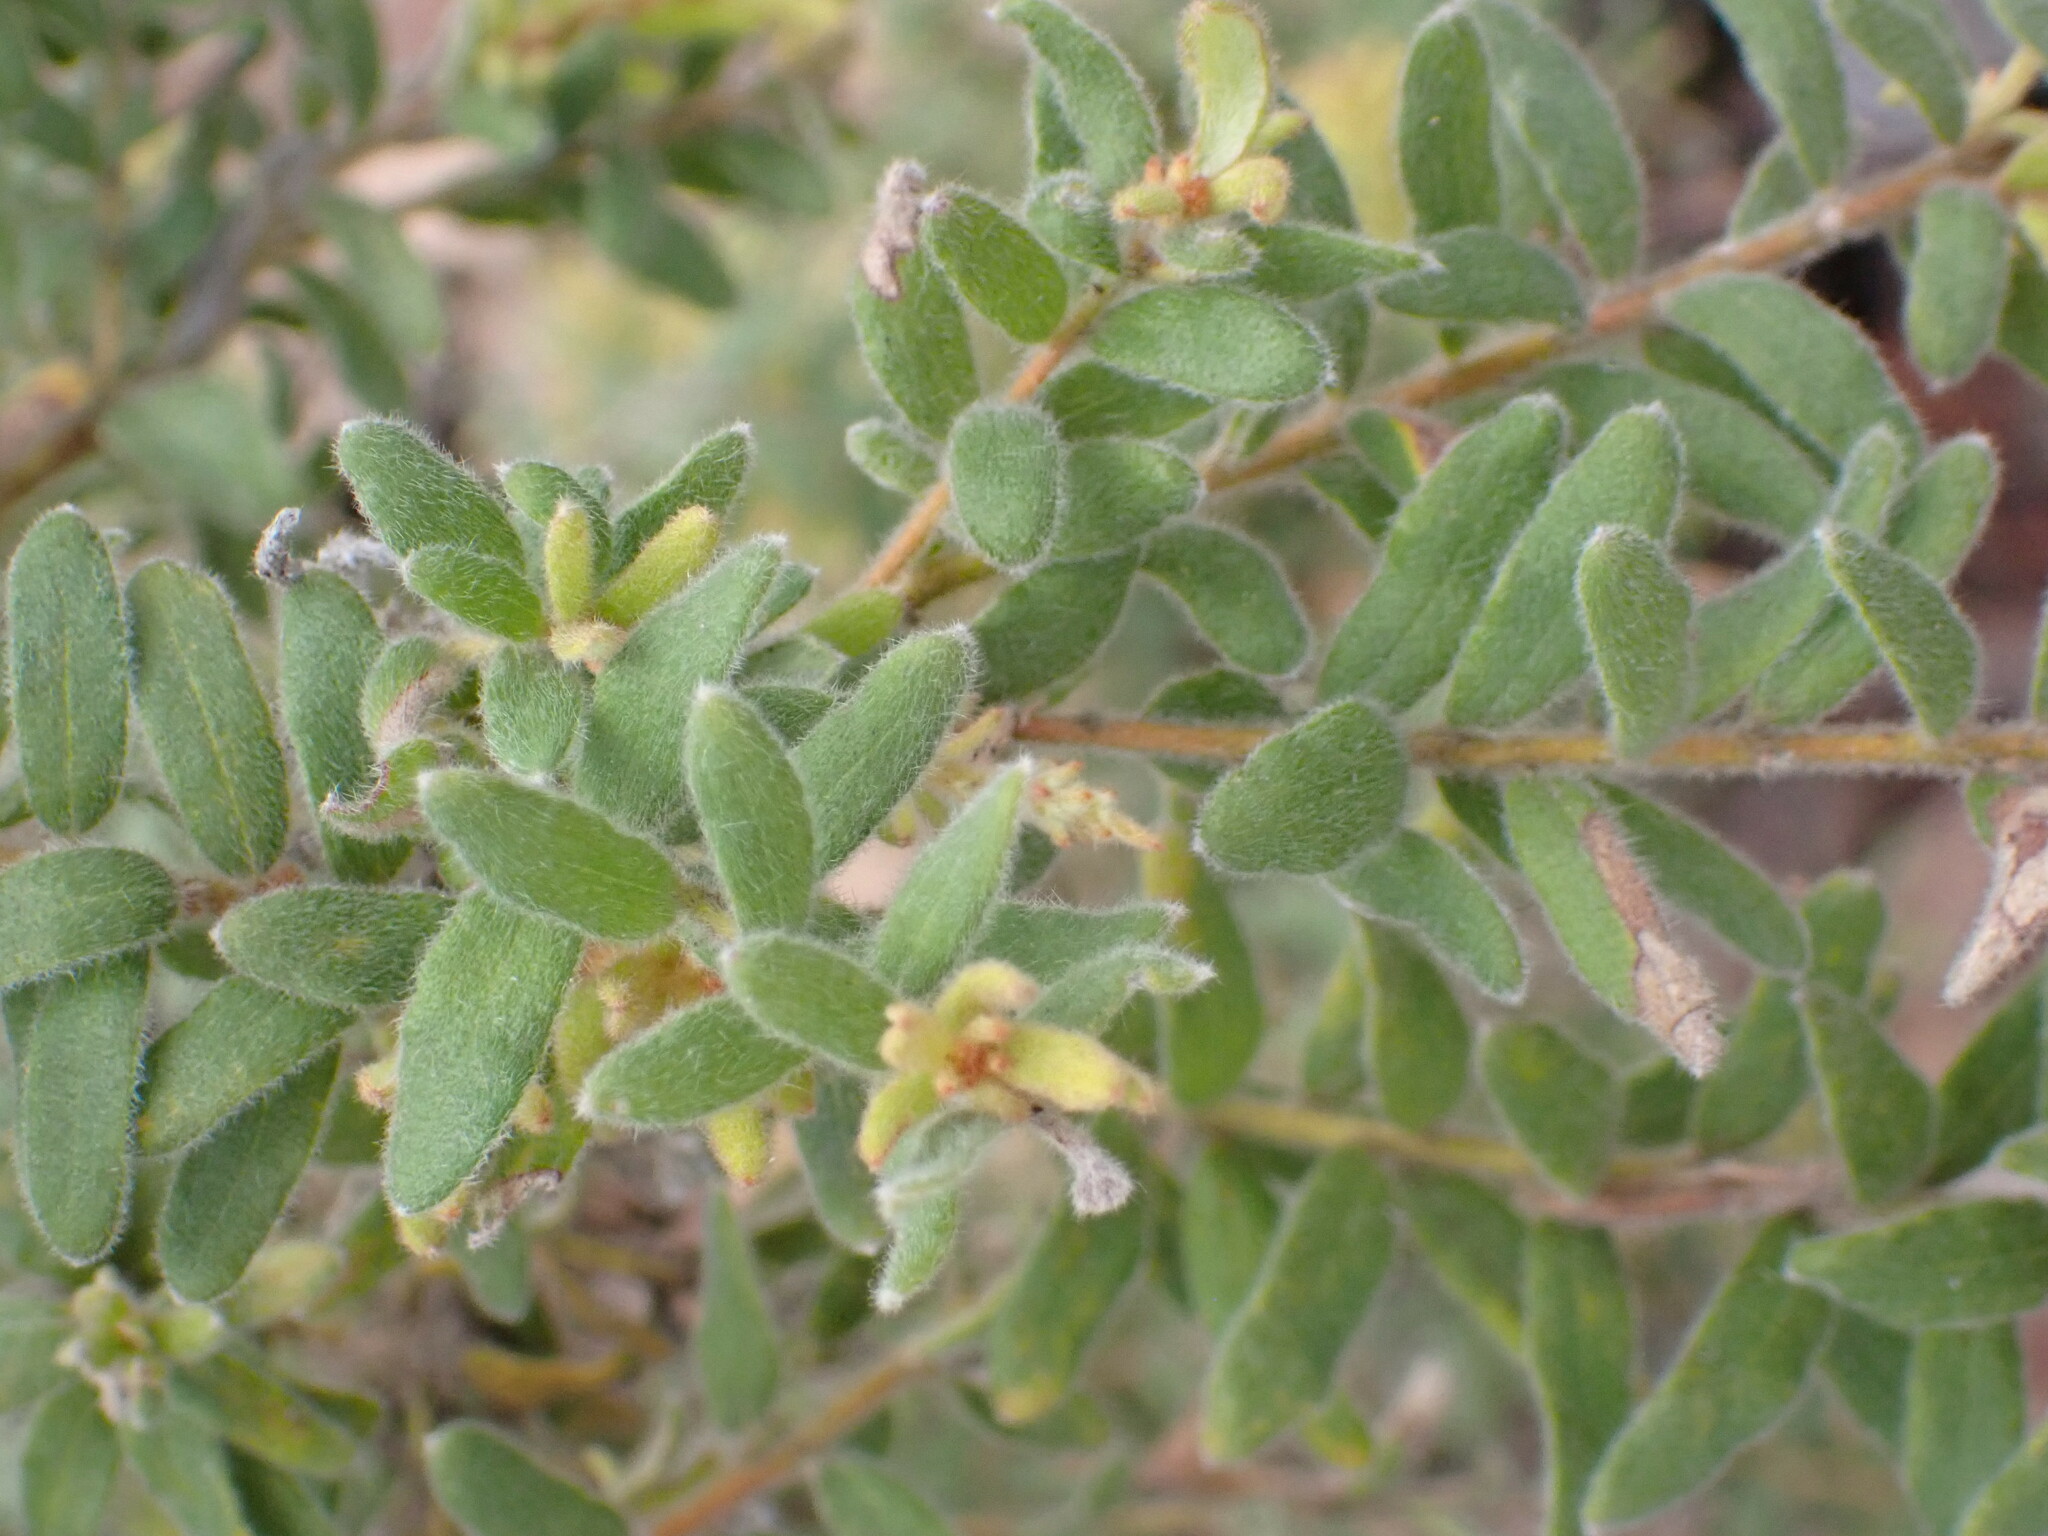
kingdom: Plantae
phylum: Tracheophyta
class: Magnoliopsida
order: Proteales
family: Proteaceae
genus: Grevillea
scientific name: Grevillea alpina
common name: Catclaws grevillea
